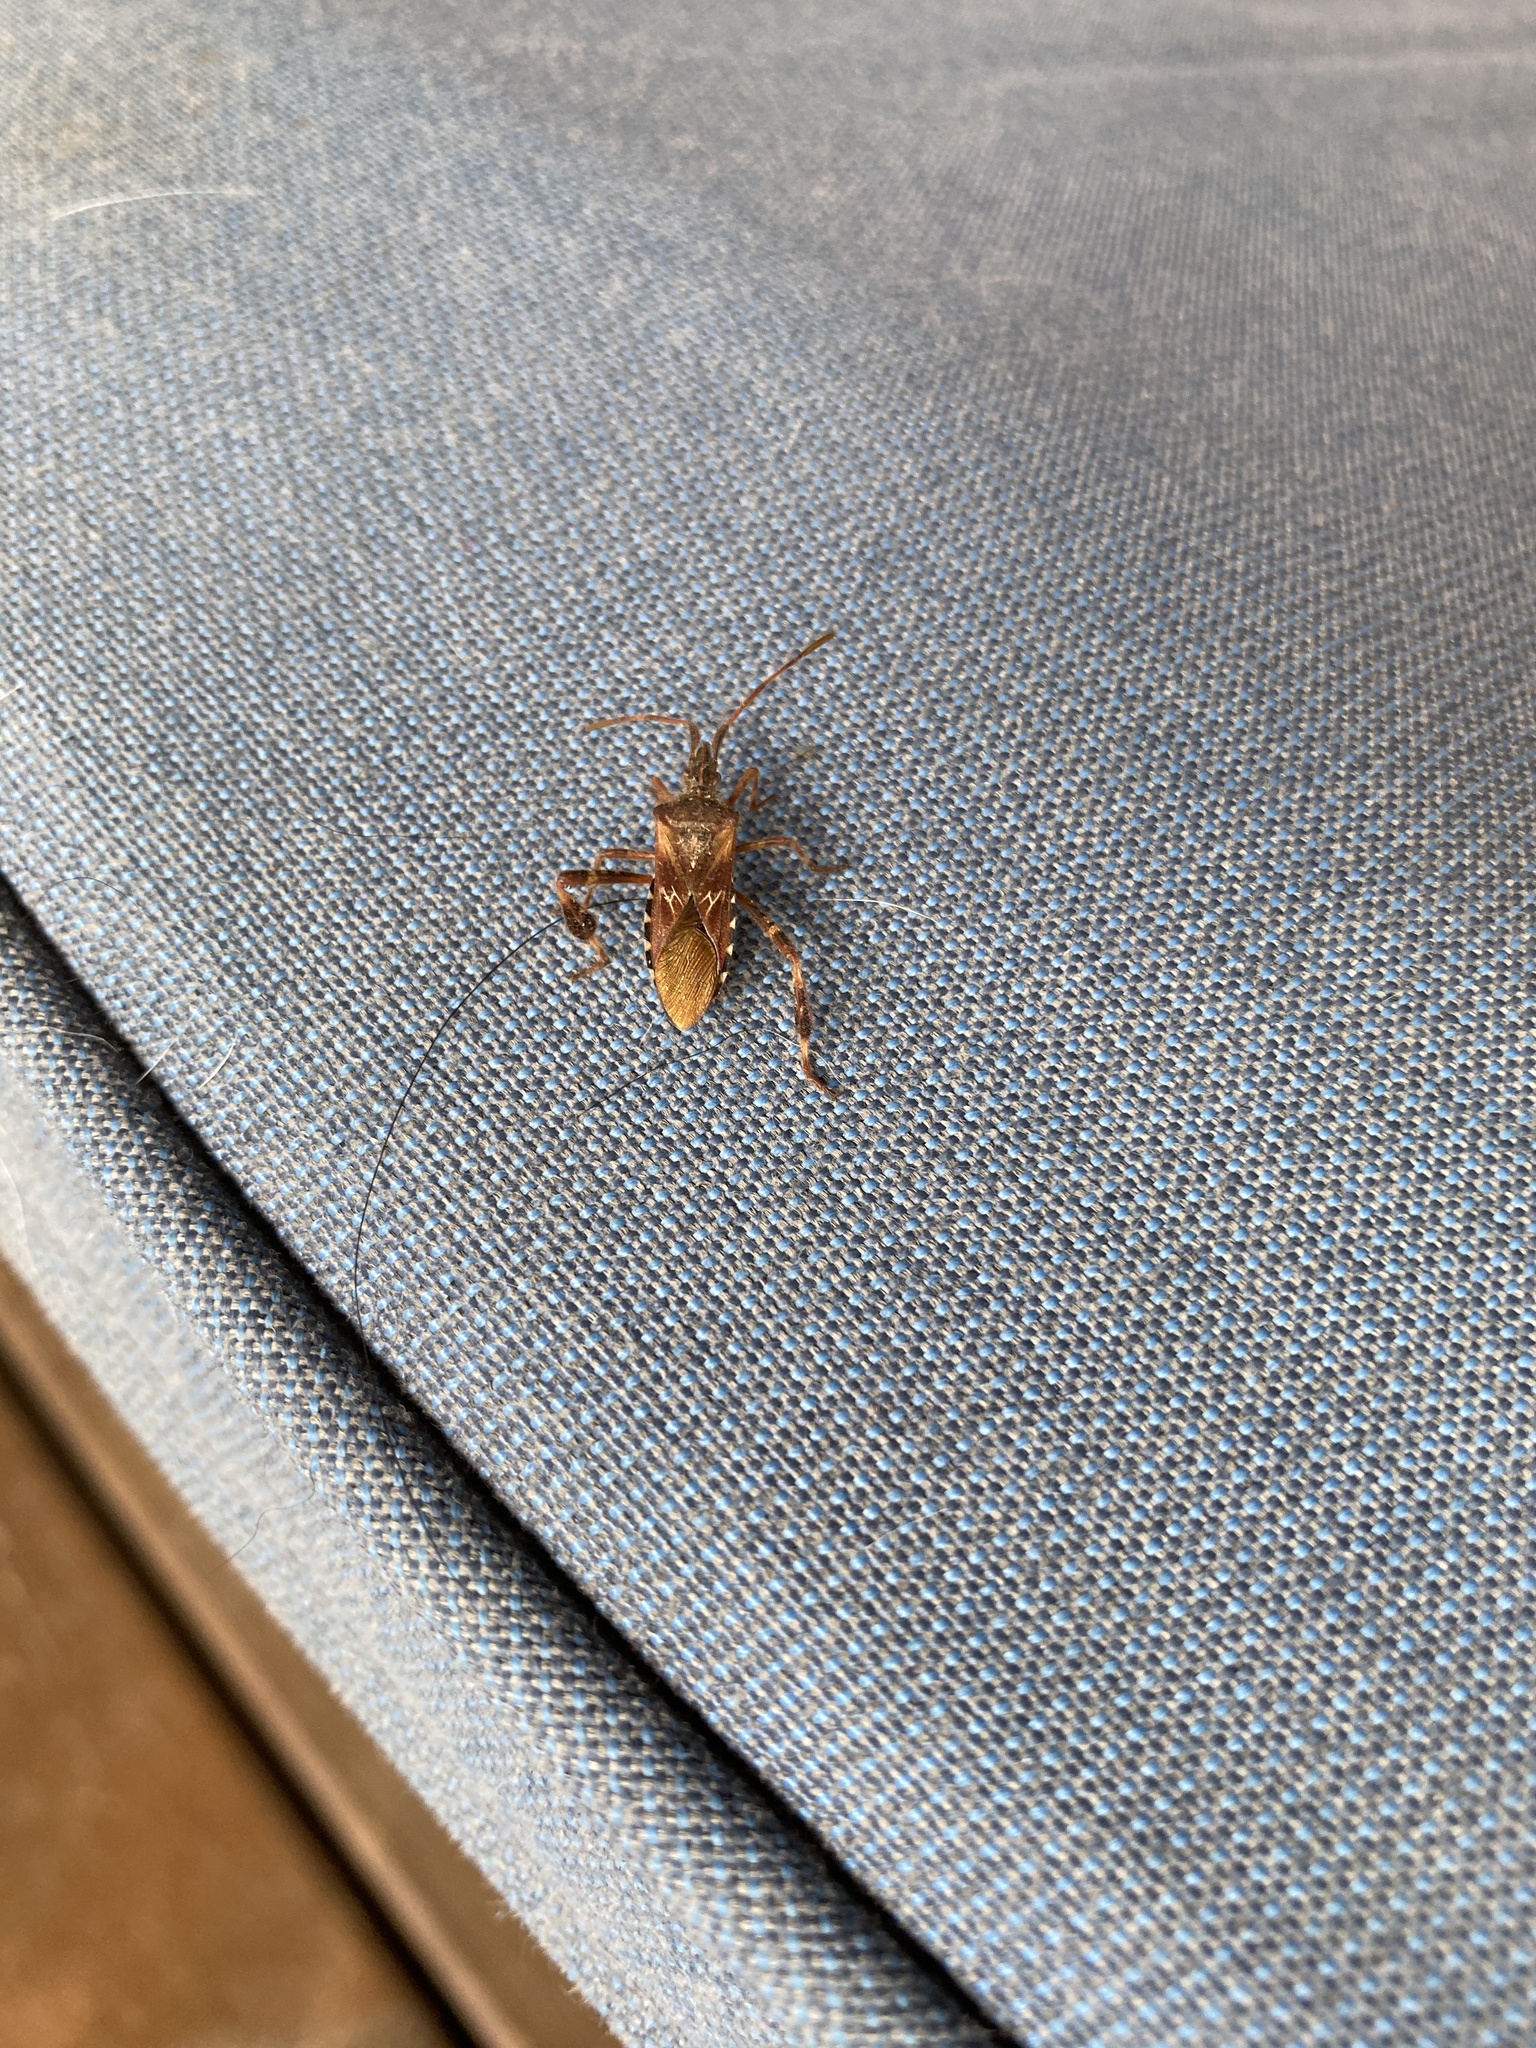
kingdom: Animalia
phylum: Arthropoda
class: Insecta
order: Hemiptera
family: Coreidae
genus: Leptoglossus
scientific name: Leptoglossus occidentalis
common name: Western conifer-seed bug
